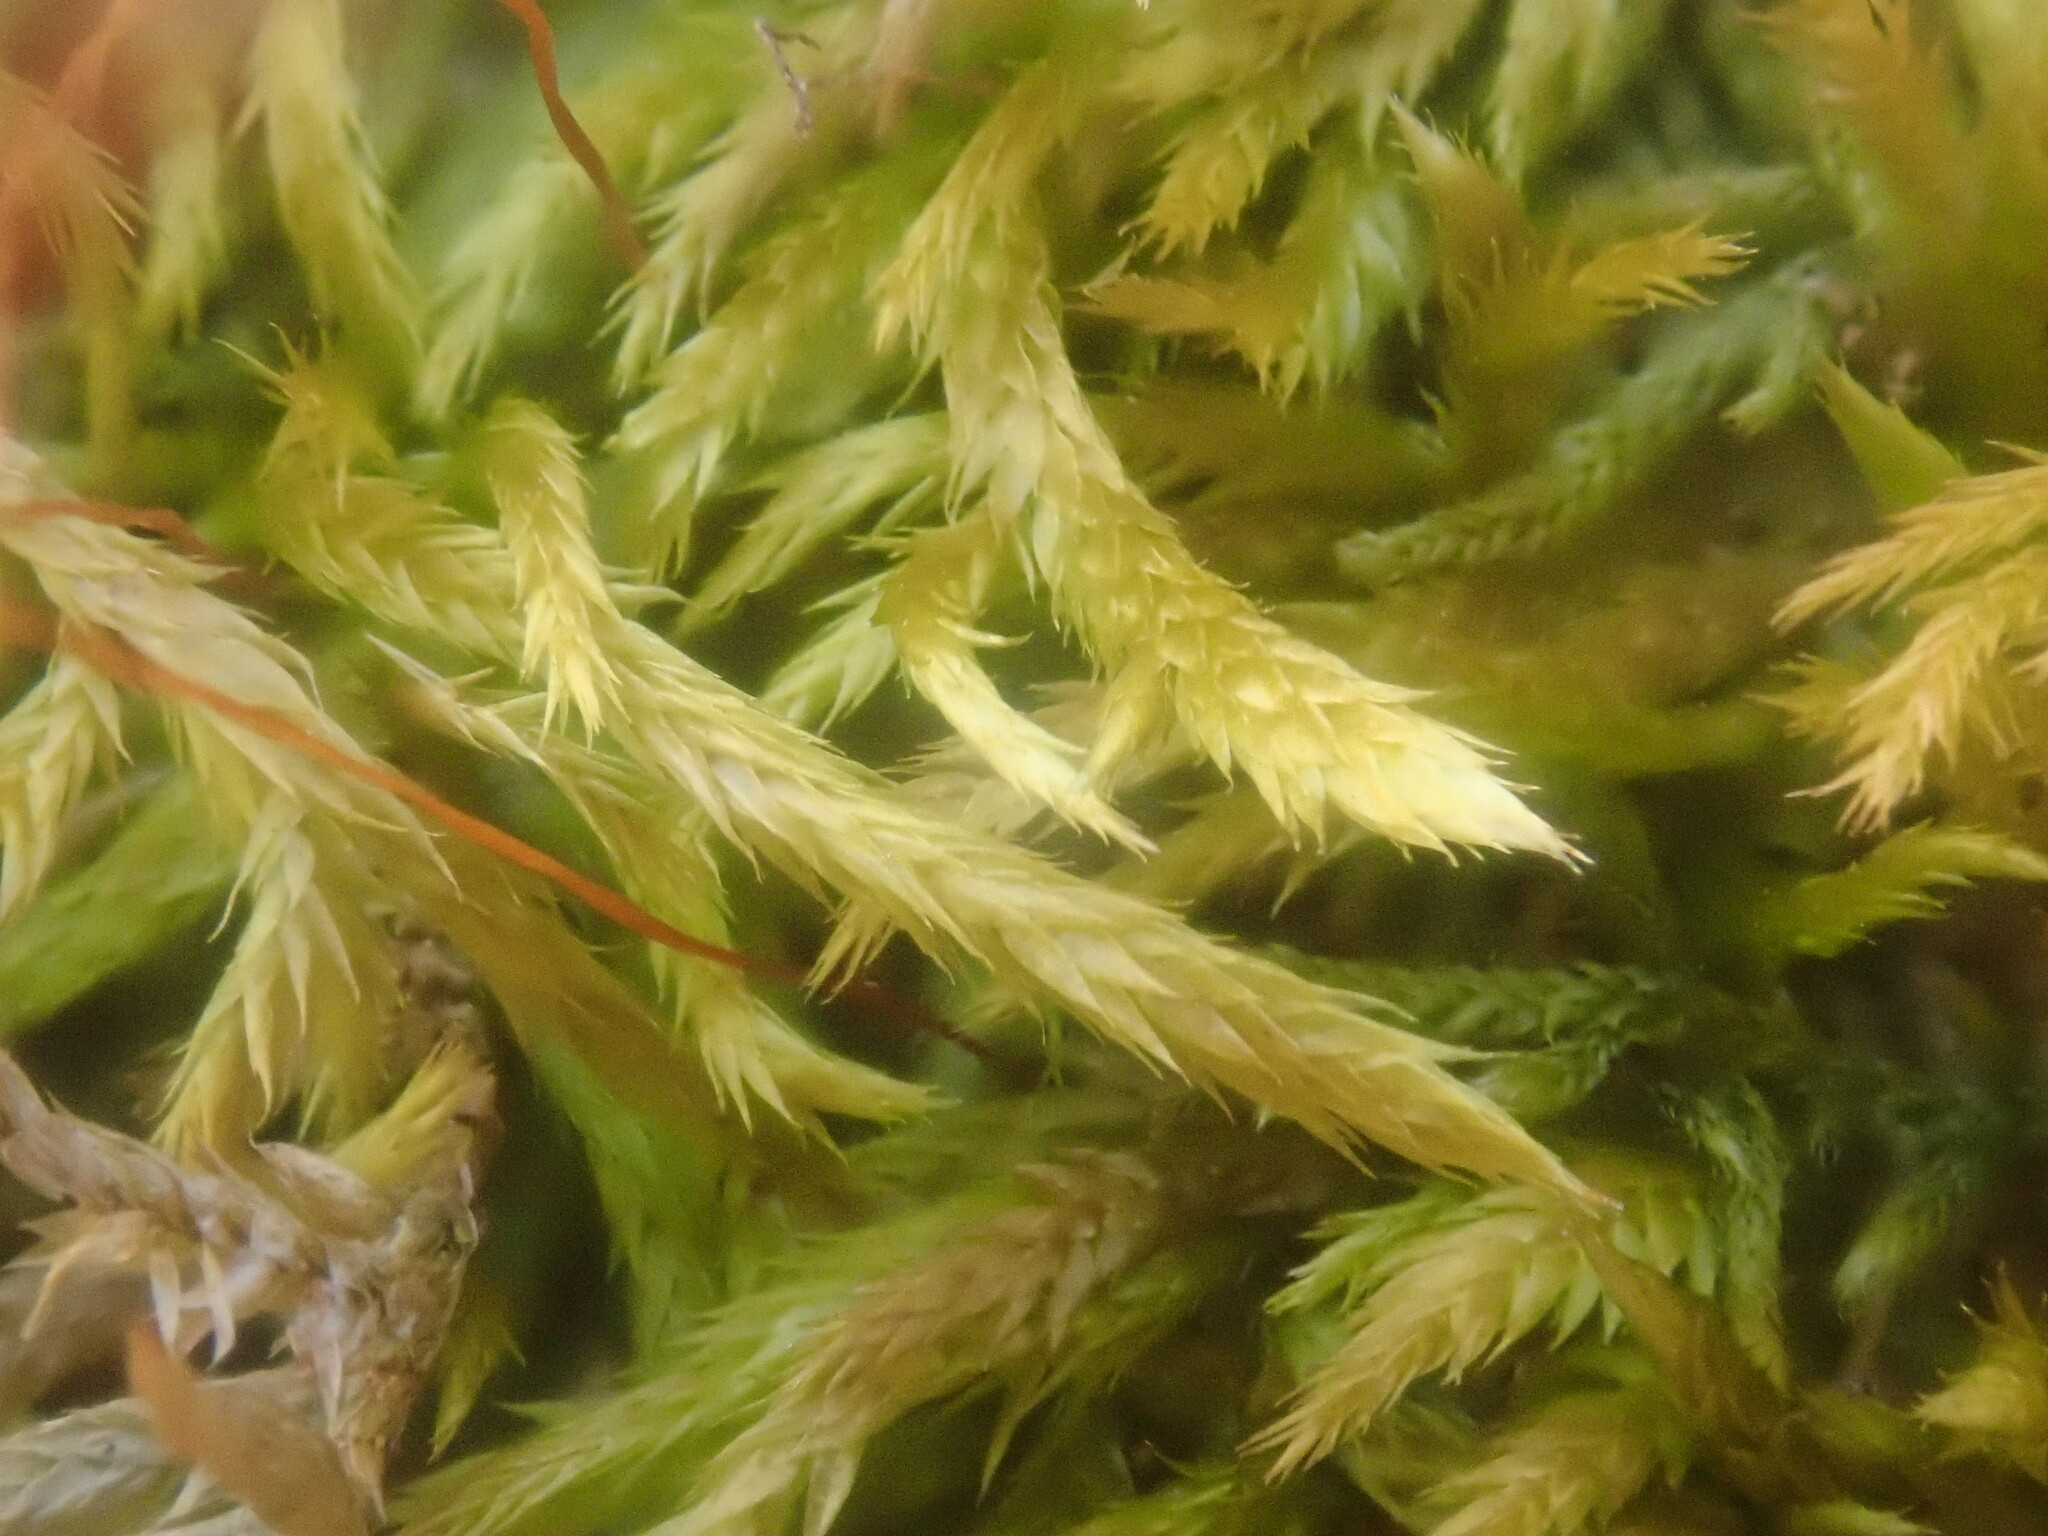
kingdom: Plantae
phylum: Bryophyta
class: Bryopsida
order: Hypnales
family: Callicladiaceae
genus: Callicladium
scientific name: Callicladium haldanianum
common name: Beautiful branch moss
